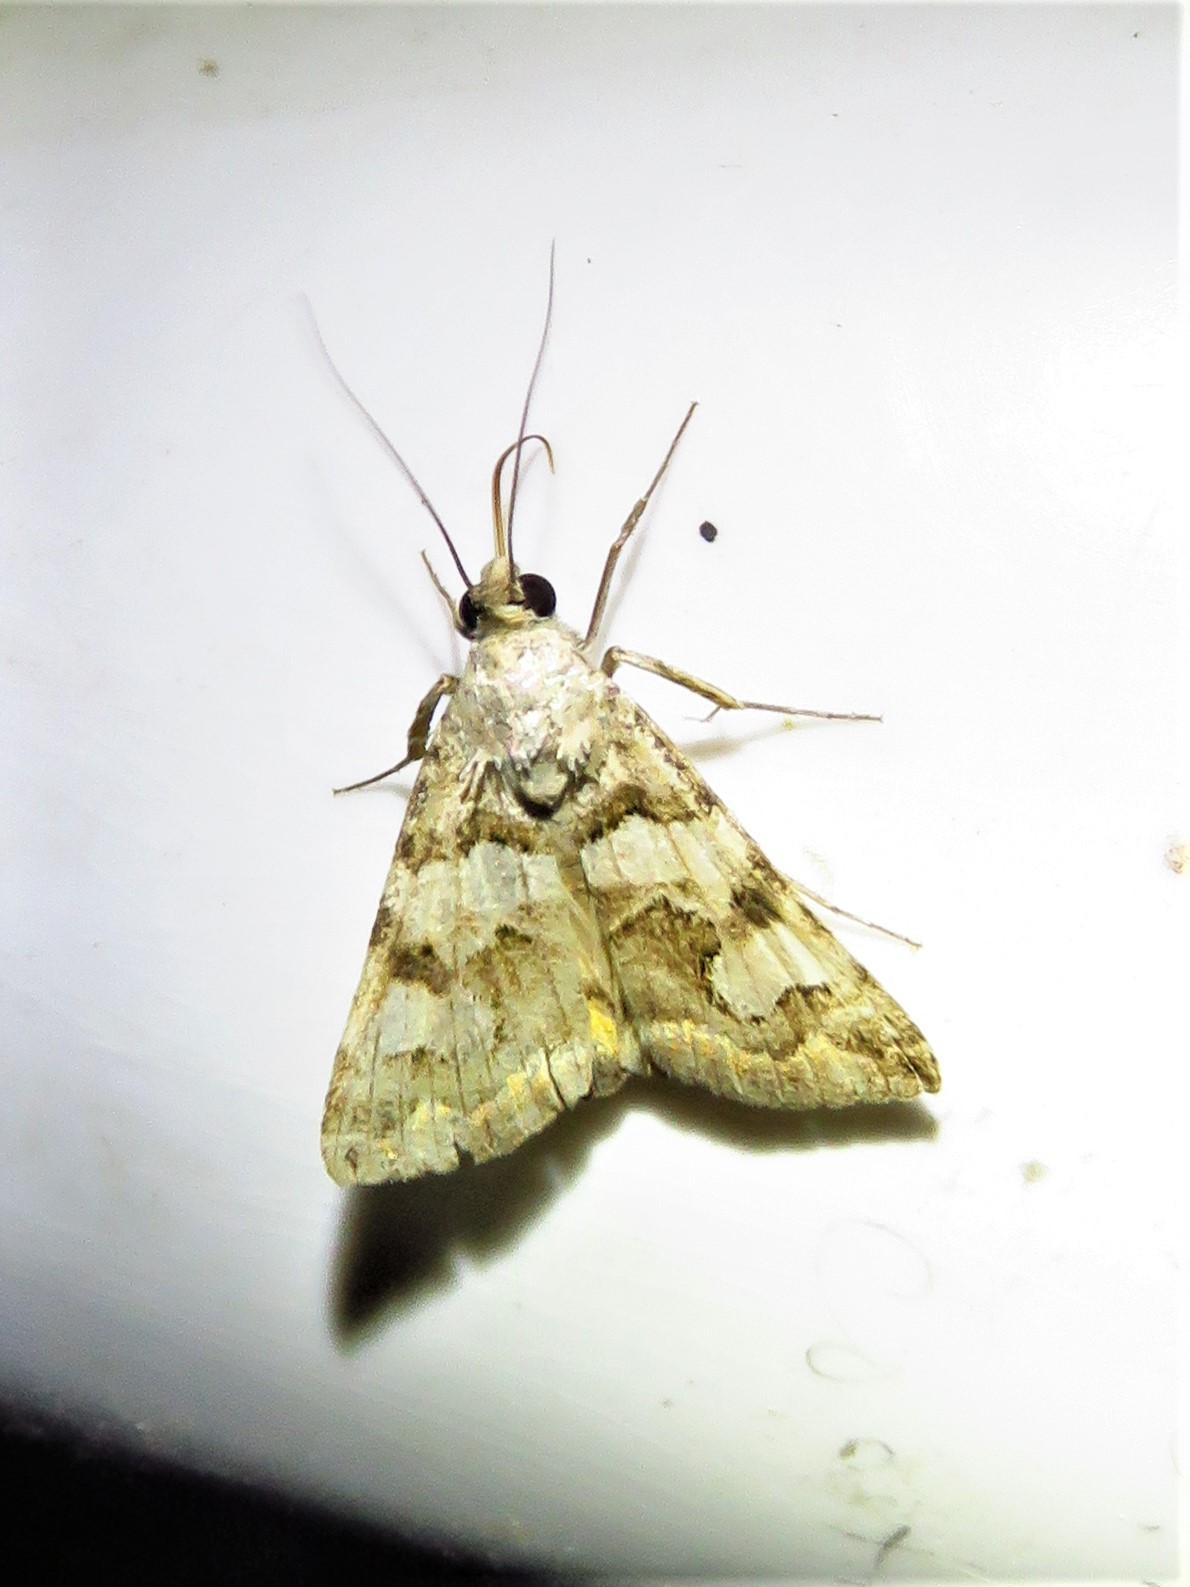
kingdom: Animalia
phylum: Arthropoda
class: Insecta
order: Lepidoptera
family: Erebidae
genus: Bulia
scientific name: Bulia deducta
